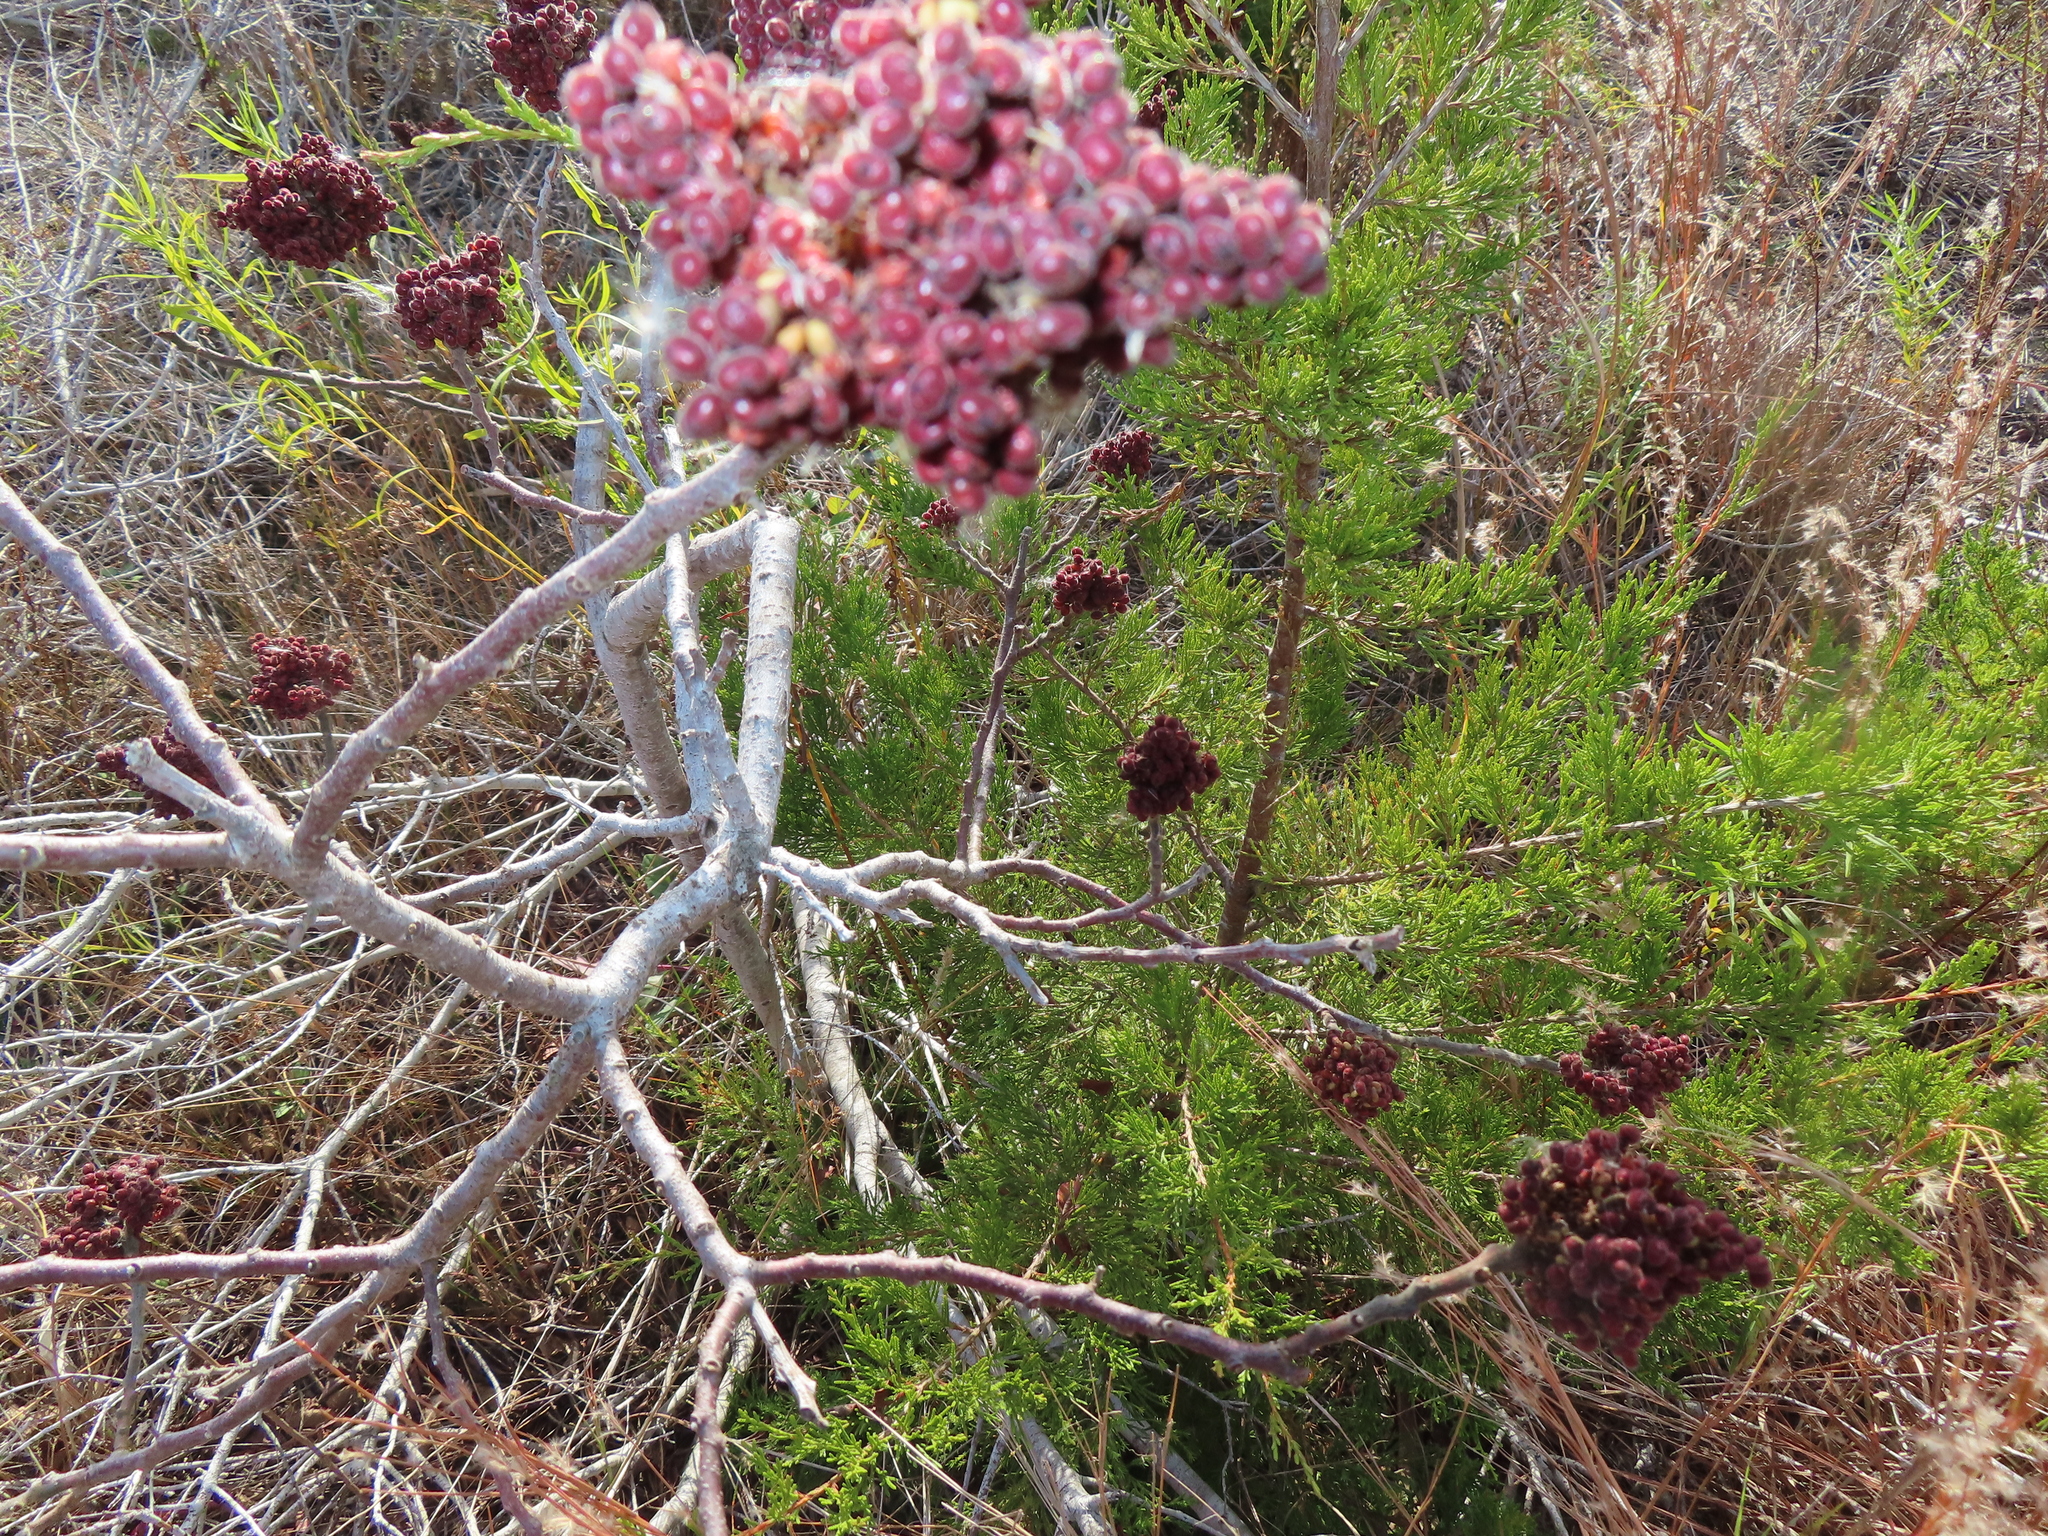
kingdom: Plantae
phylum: Tracheophyta
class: Magnoliopsida
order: Sapindales
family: Anacardiaceae
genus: Rhus
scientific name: Rhus copallina
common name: Shining sumac
